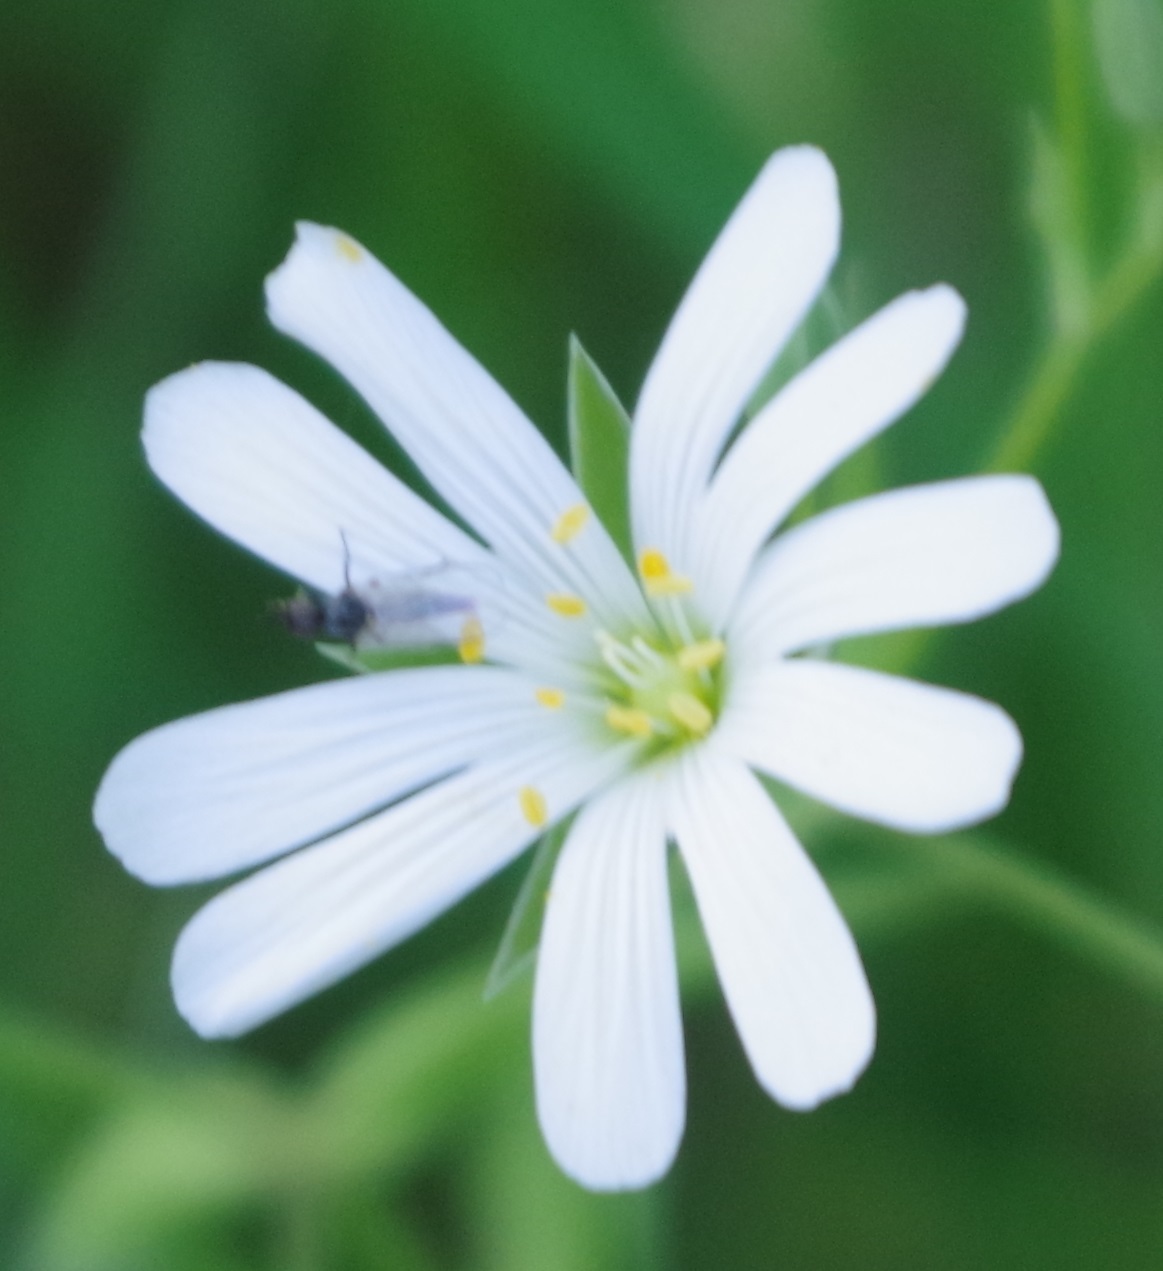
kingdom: Plantae
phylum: Tracheophyta
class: Magnoliopsida
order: Caryophyllales
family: Caryophyllaceae
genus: Rabelera
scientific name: Rabelera holostea
